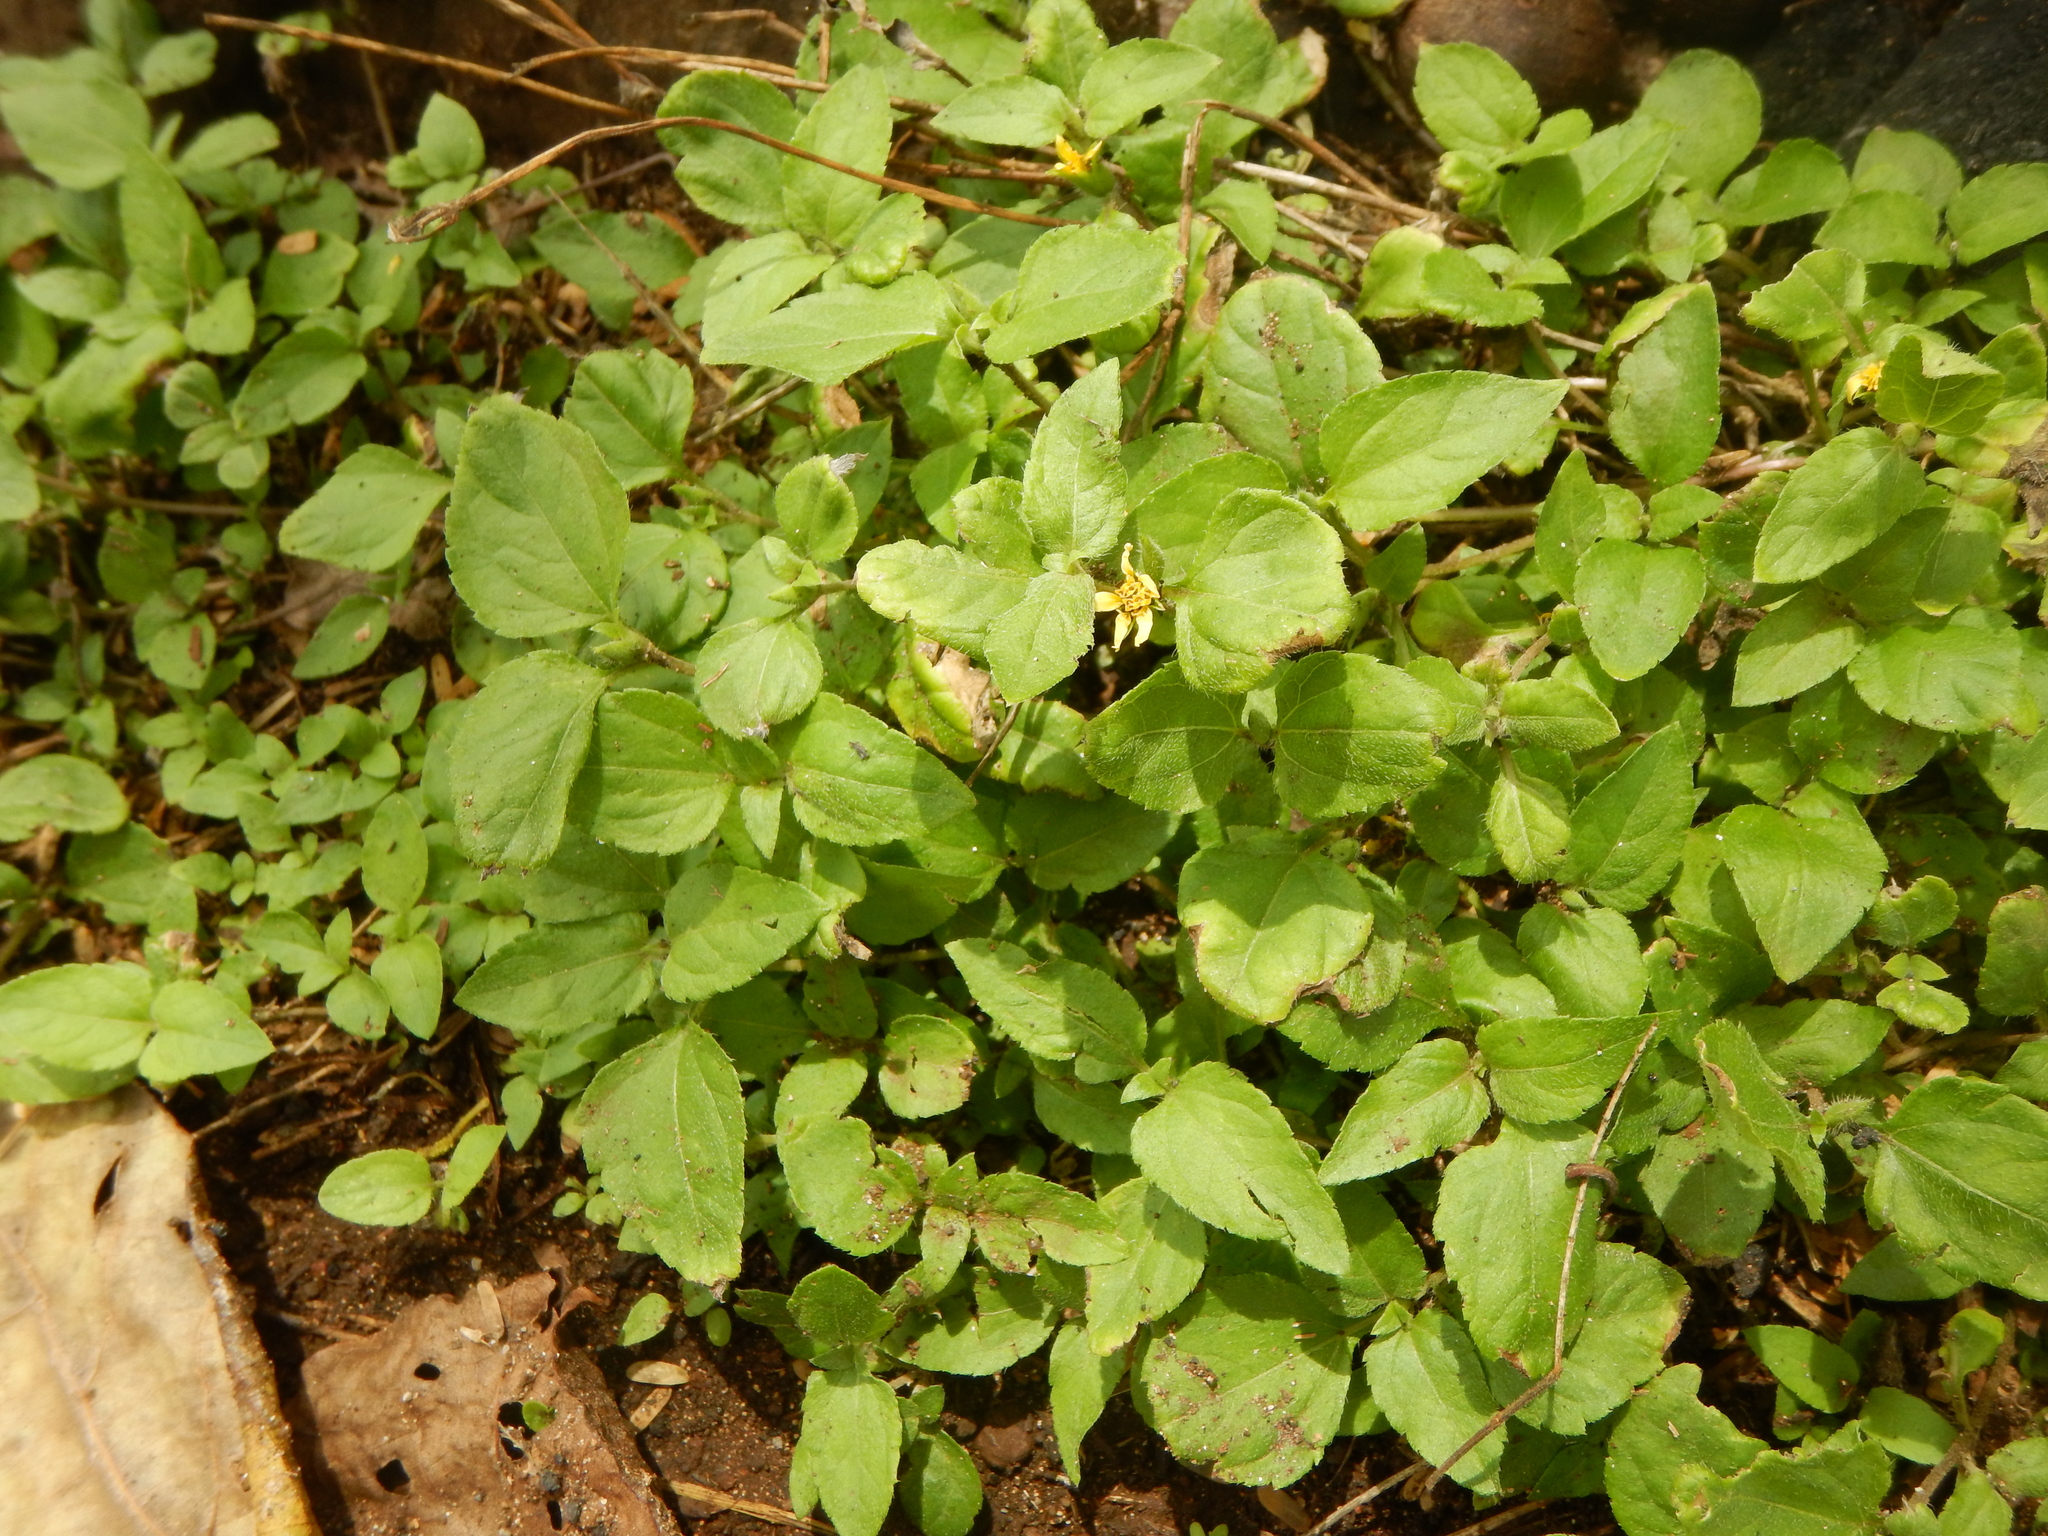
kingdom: Plantae
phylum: Tracheophyta
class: Magnoliopsida
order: Asterales
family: Asteraceae
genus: Calyptocarpus
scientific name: Calyptocarpus vialis
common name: Straggler daisy
